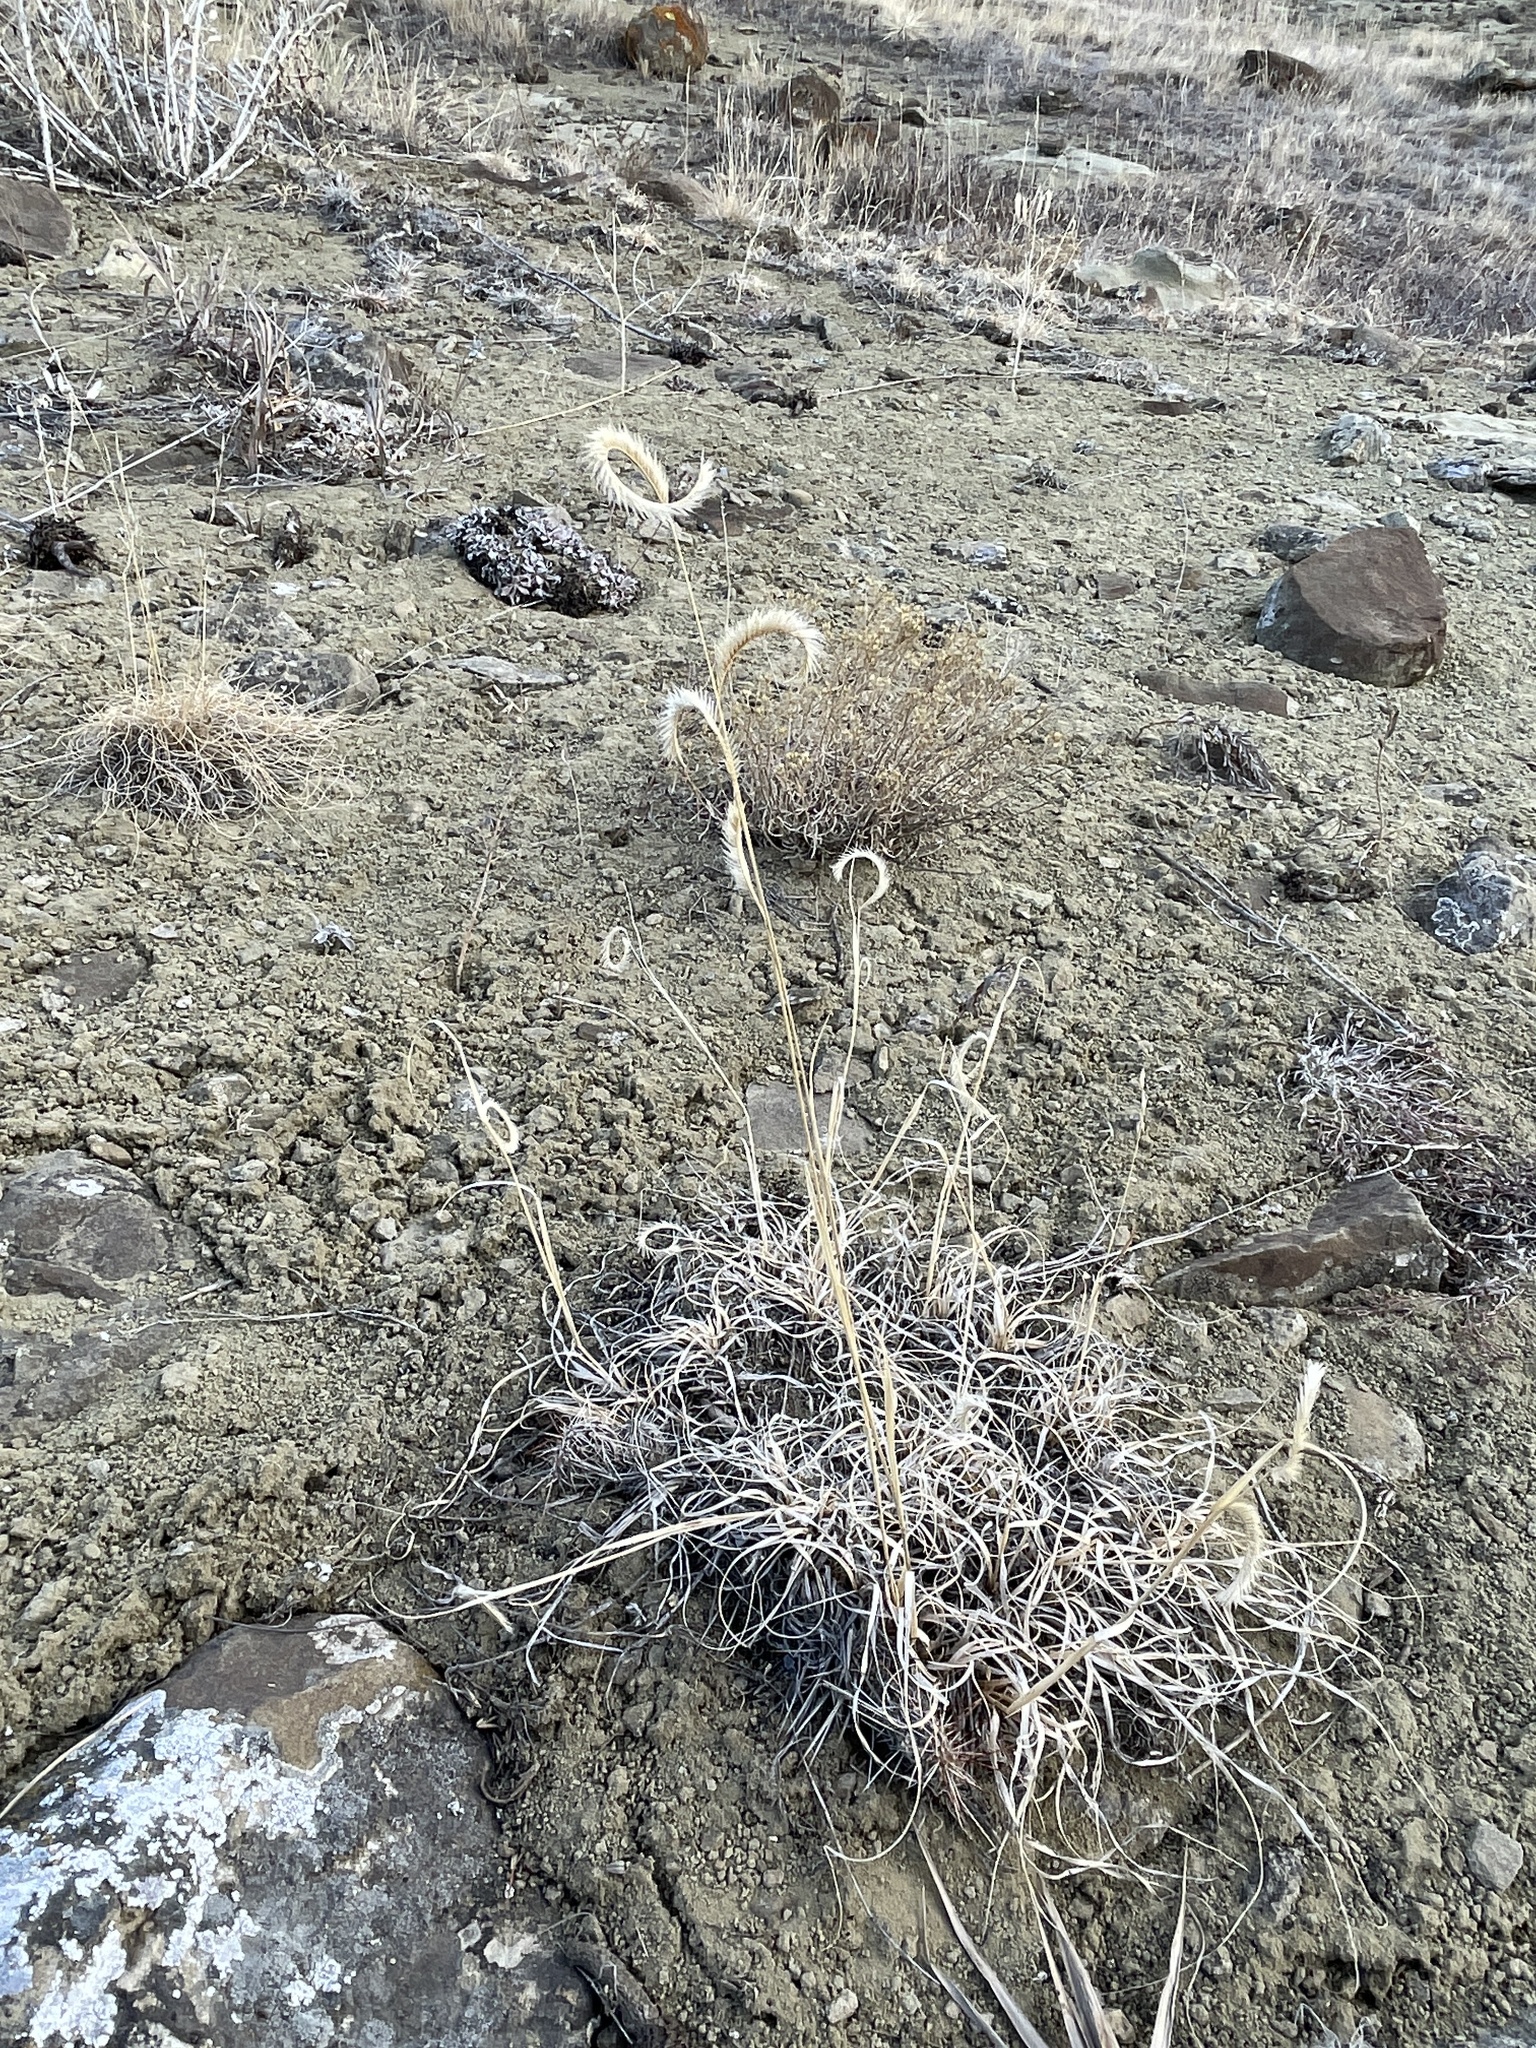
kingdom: Plantae
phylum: Tracheophyta
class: Liliopsida
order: Poales
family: Poaceae
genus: Bouteloua
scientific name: Bouteloua gracilis
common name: Blue grama
